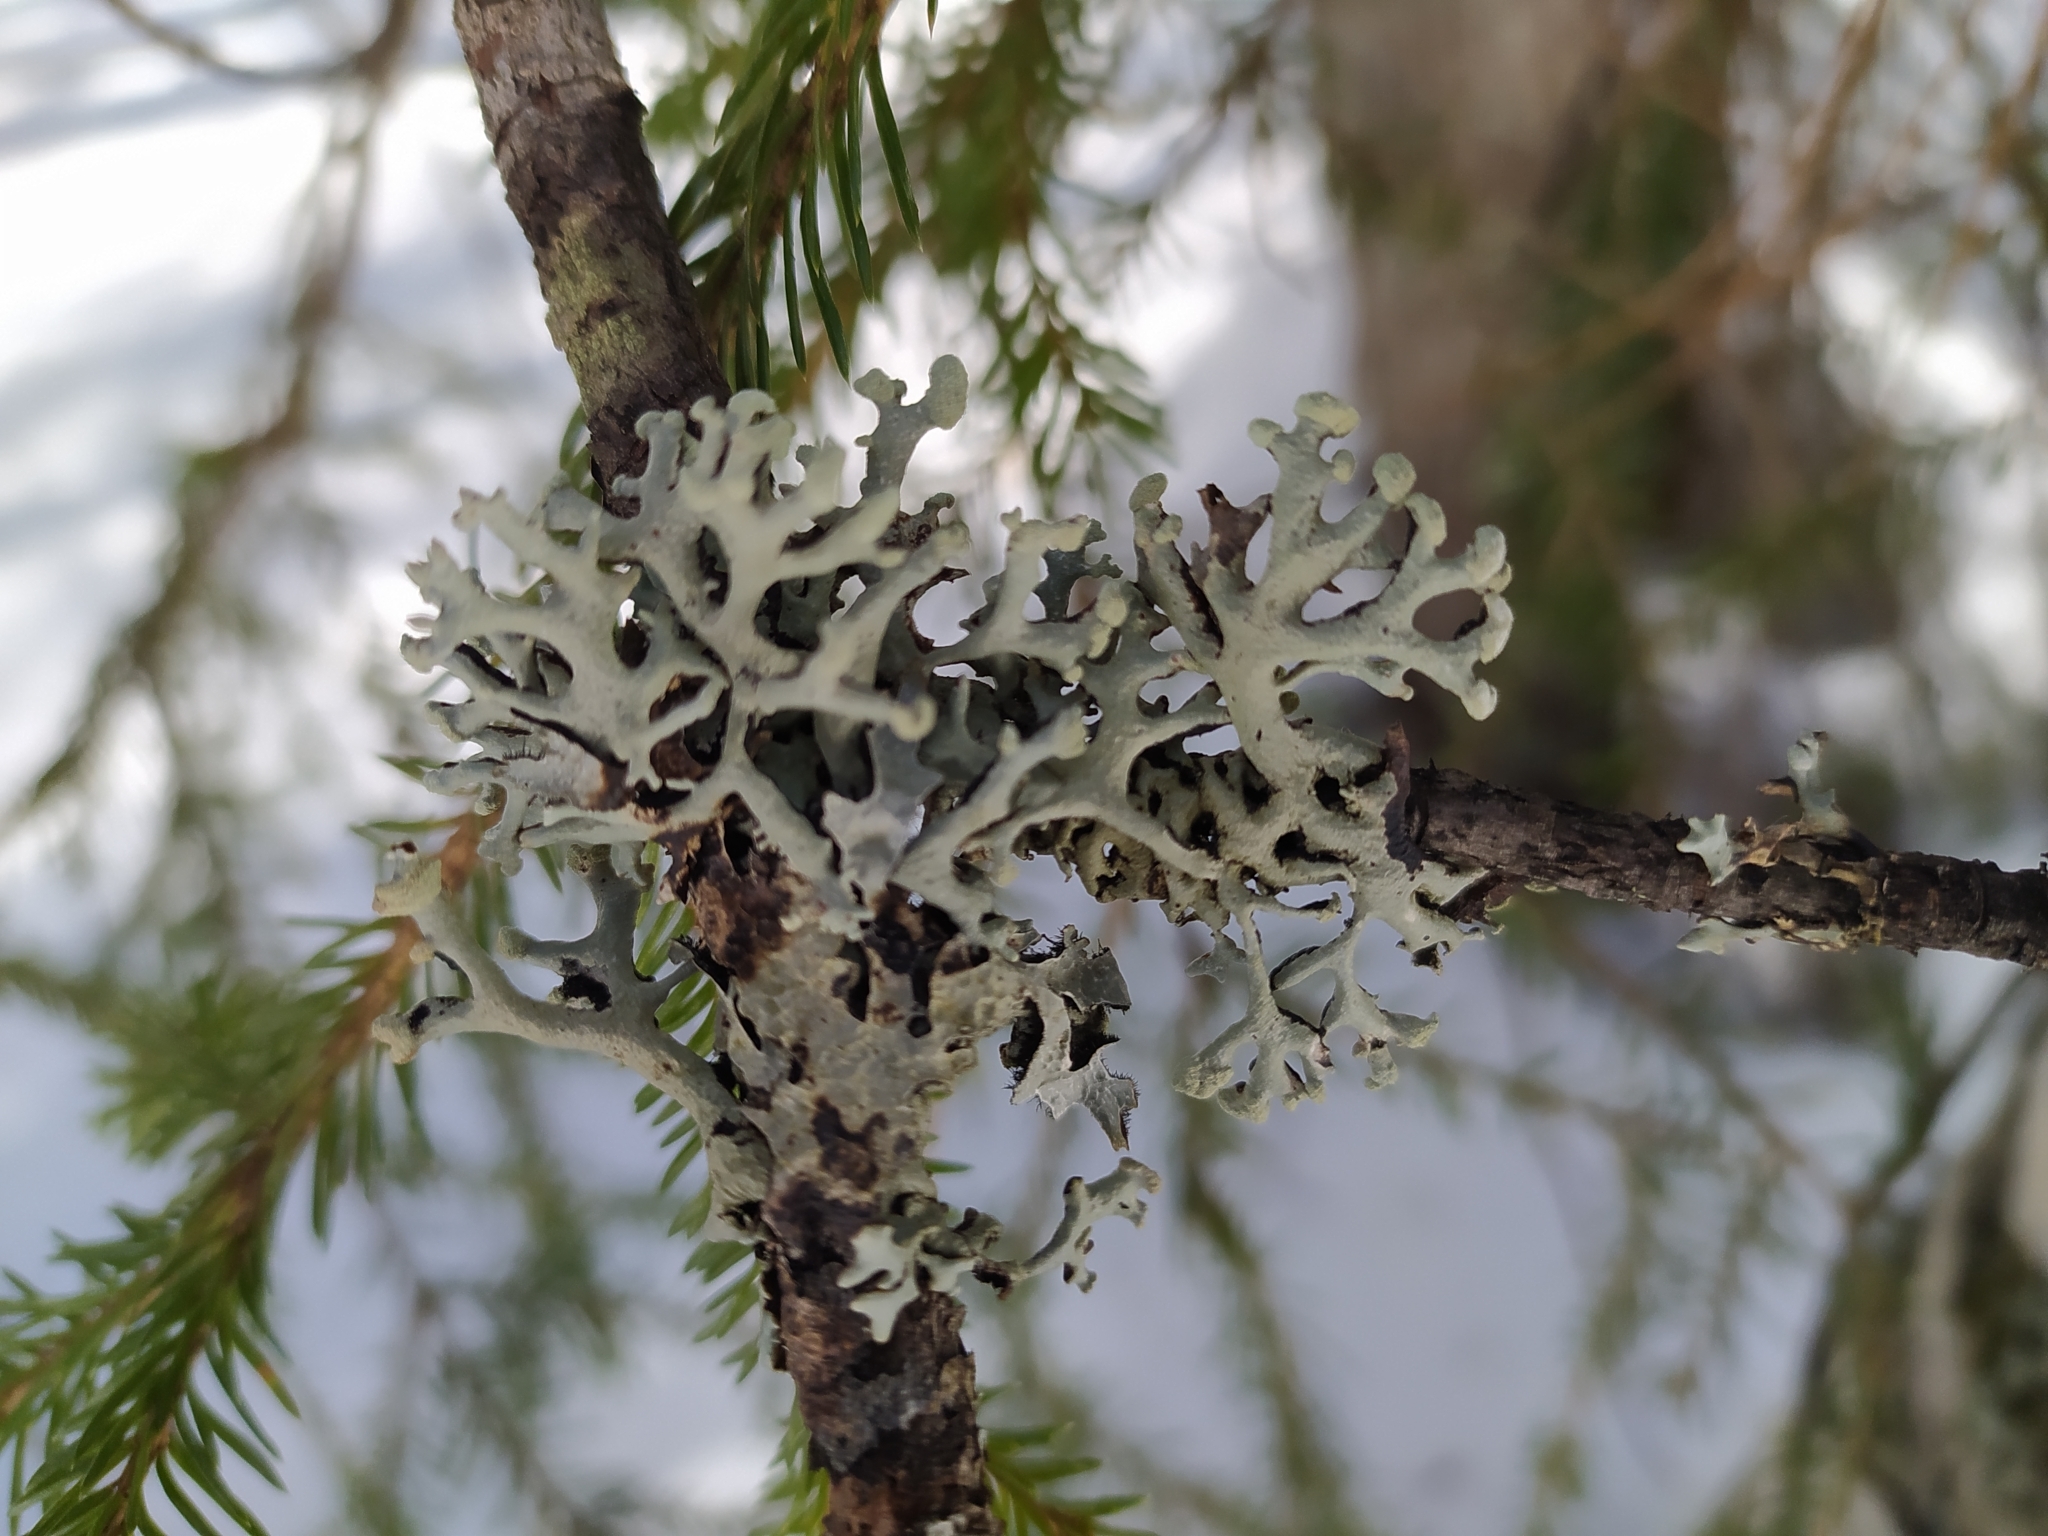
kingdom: Fungi
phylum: Ascomycota
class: Lecanoromycetes
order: Lecanorales
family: Parmeliaceae
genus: Hypogymnia
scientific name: Hypogymnia tubulosa
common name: Powder-headed tube lichen
